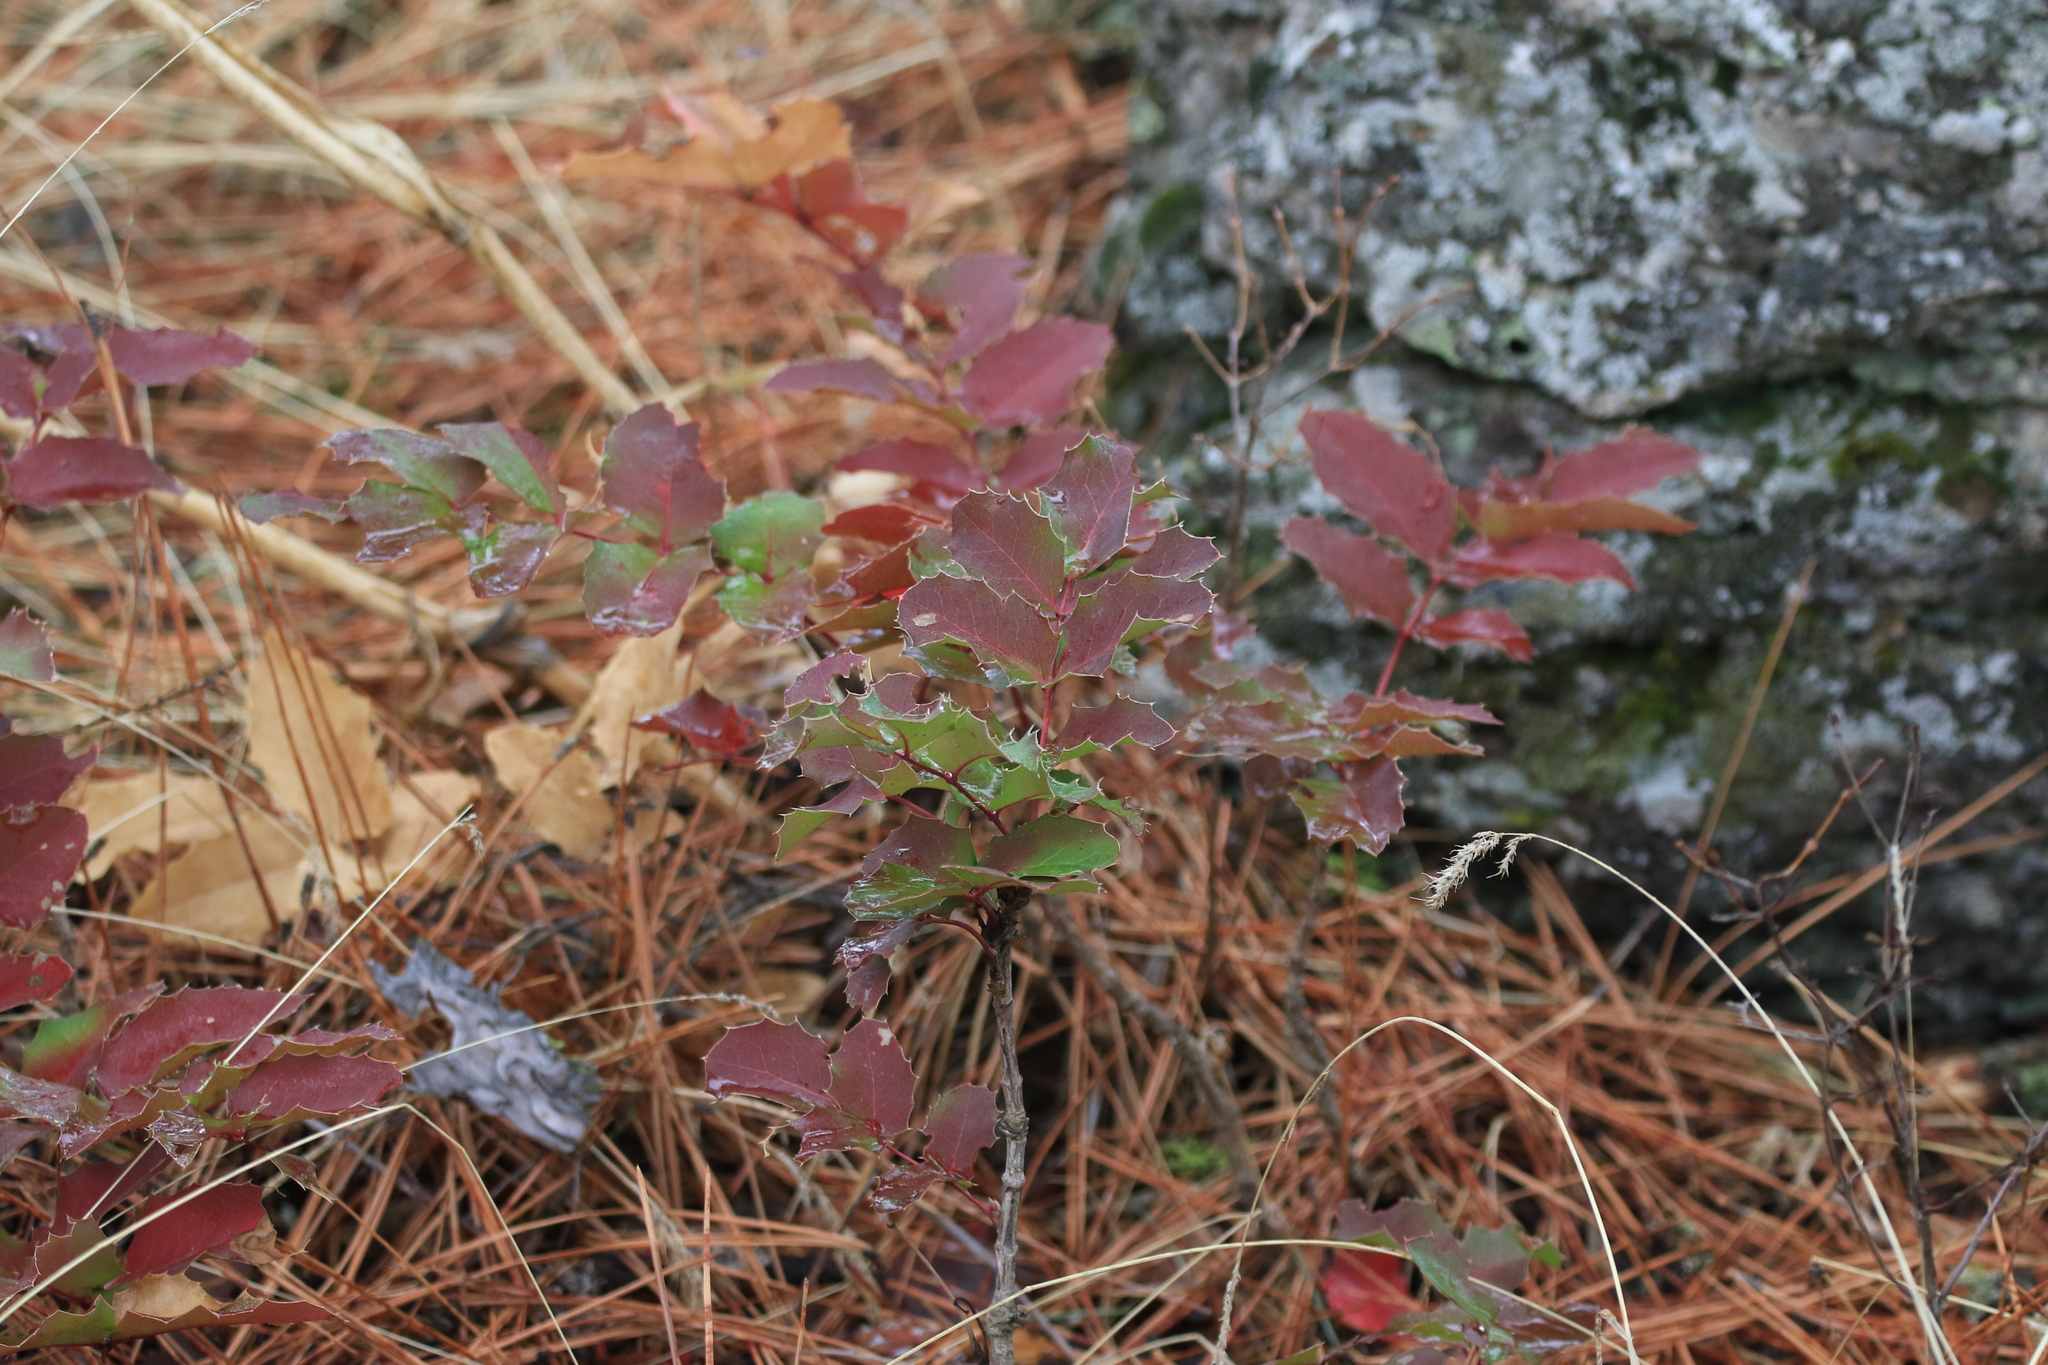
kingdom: Plantae
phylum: Tracheophyta
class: Magnoliopsida
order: Ranunculales
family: Berberidaceae
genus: Mahonia
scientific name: Mahonia repens
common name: Creeping oregon-grape
